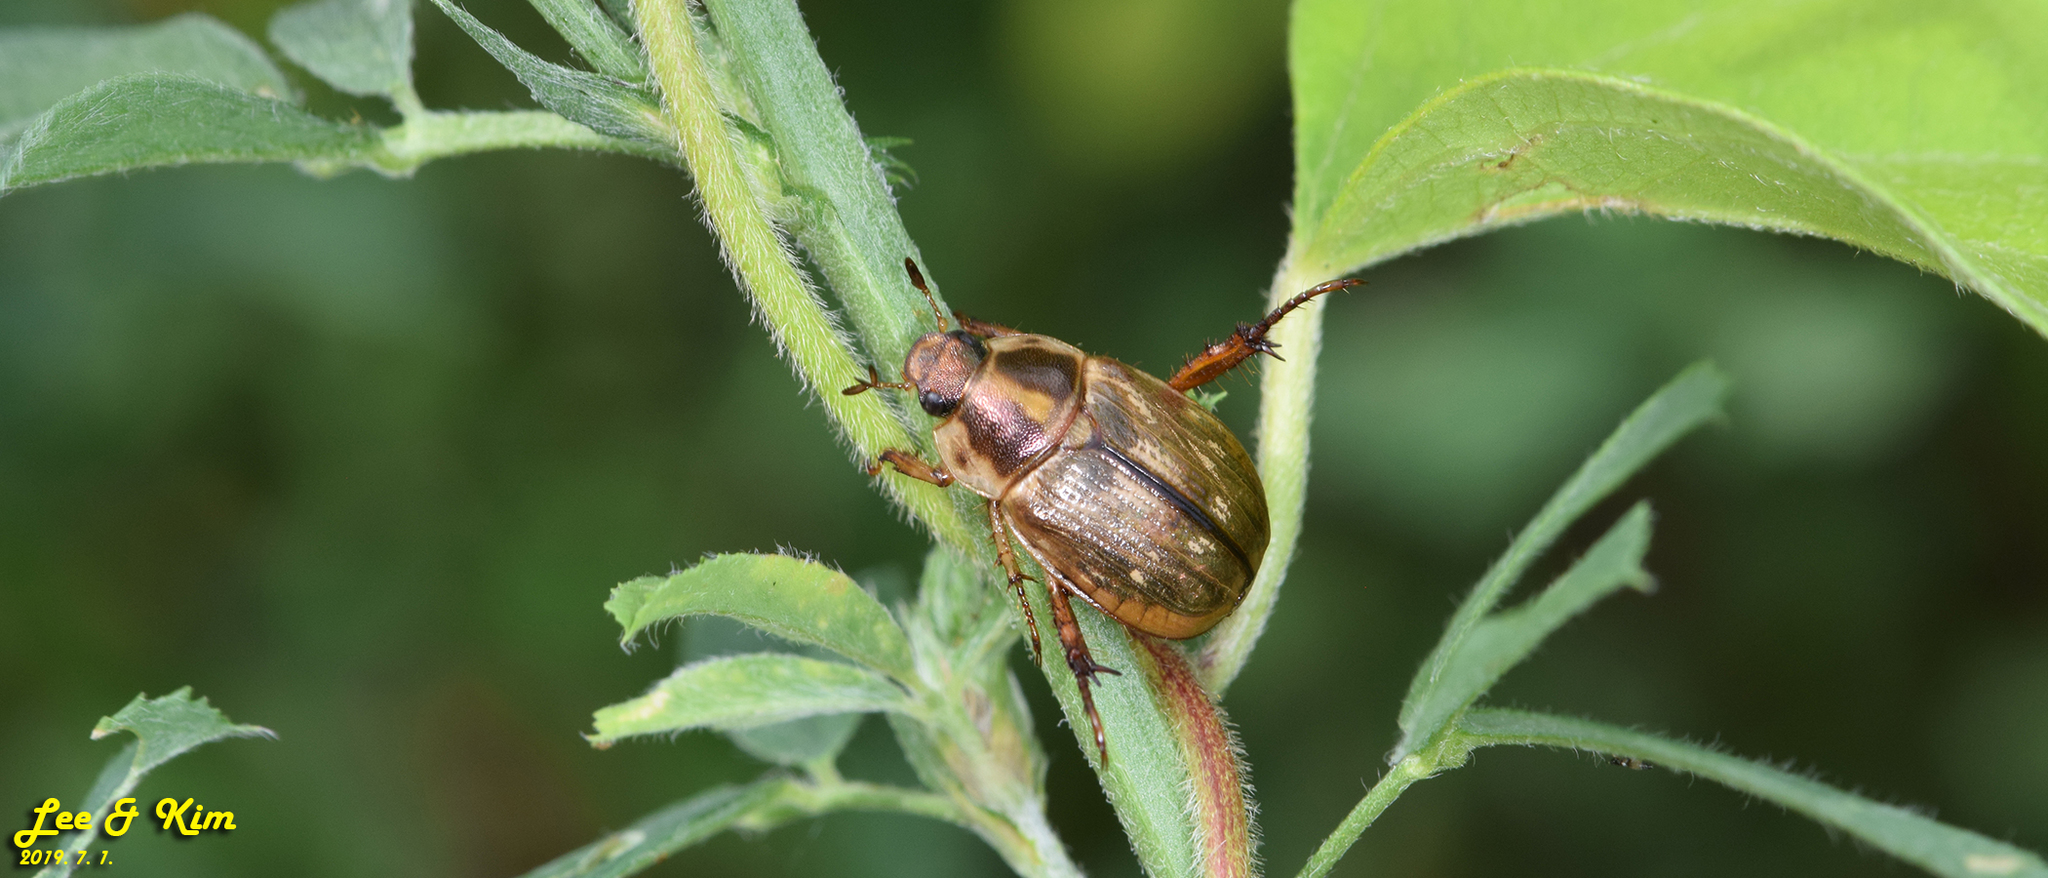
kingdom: Animalia
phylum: Arthropoda
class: Insecta
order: Coleoptera
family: Scarabaeidae
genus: Exomala
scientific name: Exomala orientalis
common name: Oriental beetle
